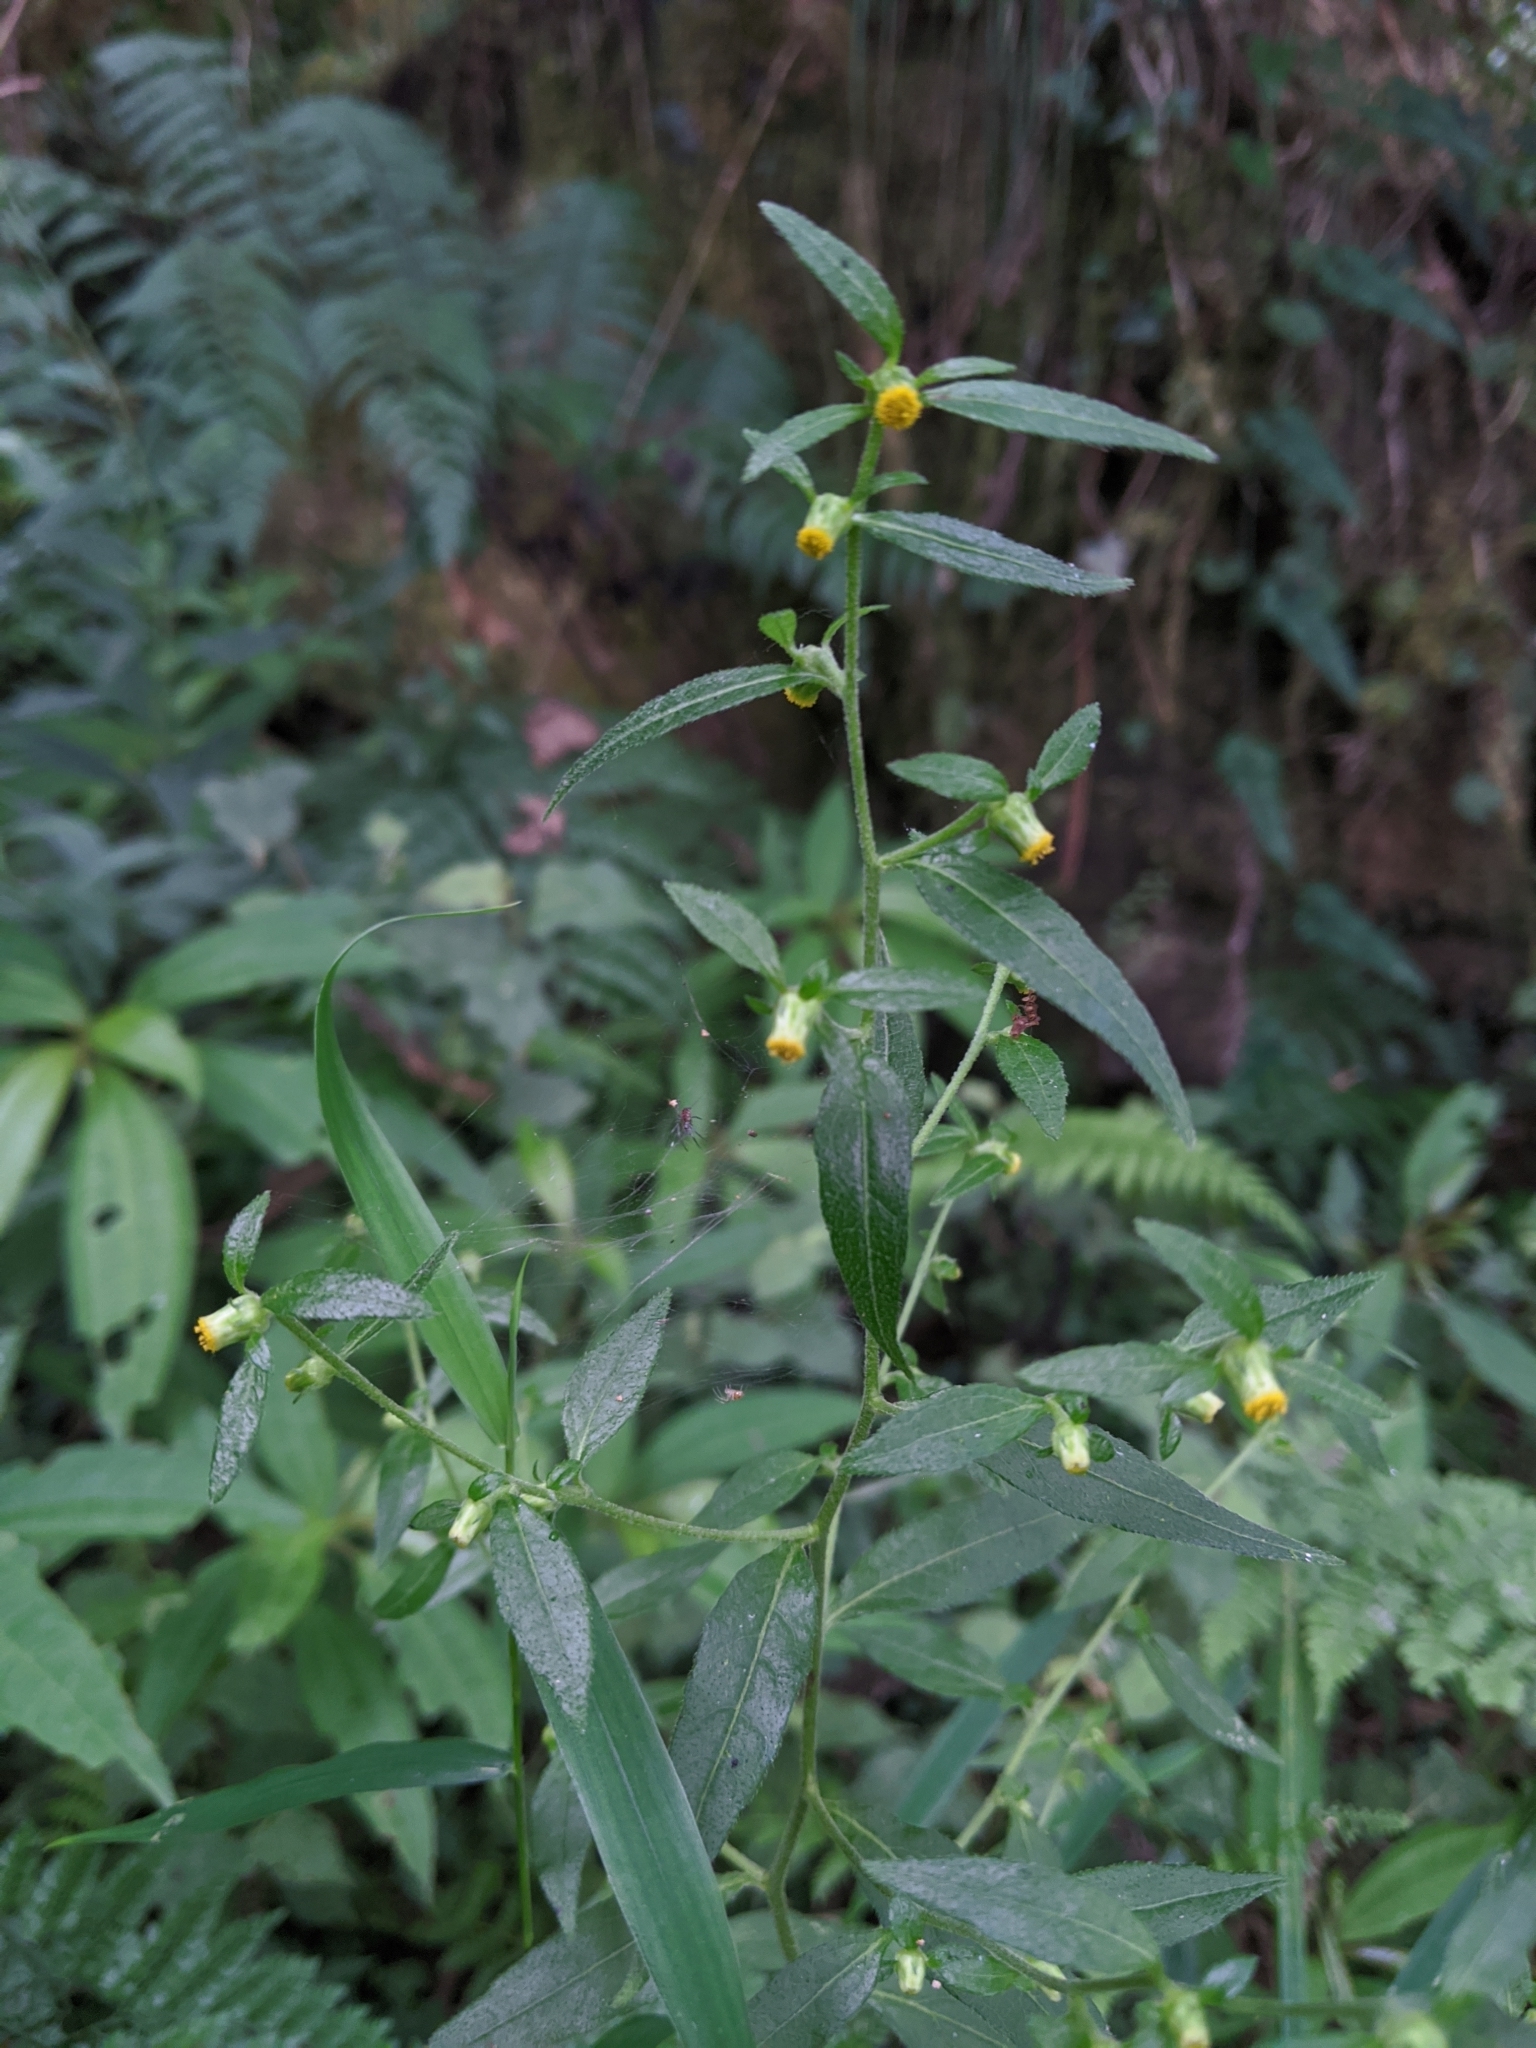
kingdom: Plantae
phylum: Tracheophyta
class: Magnoliopsida
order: Asterales
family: Asteraceae
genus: Carpesium
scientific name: Carpesium divaricatum
